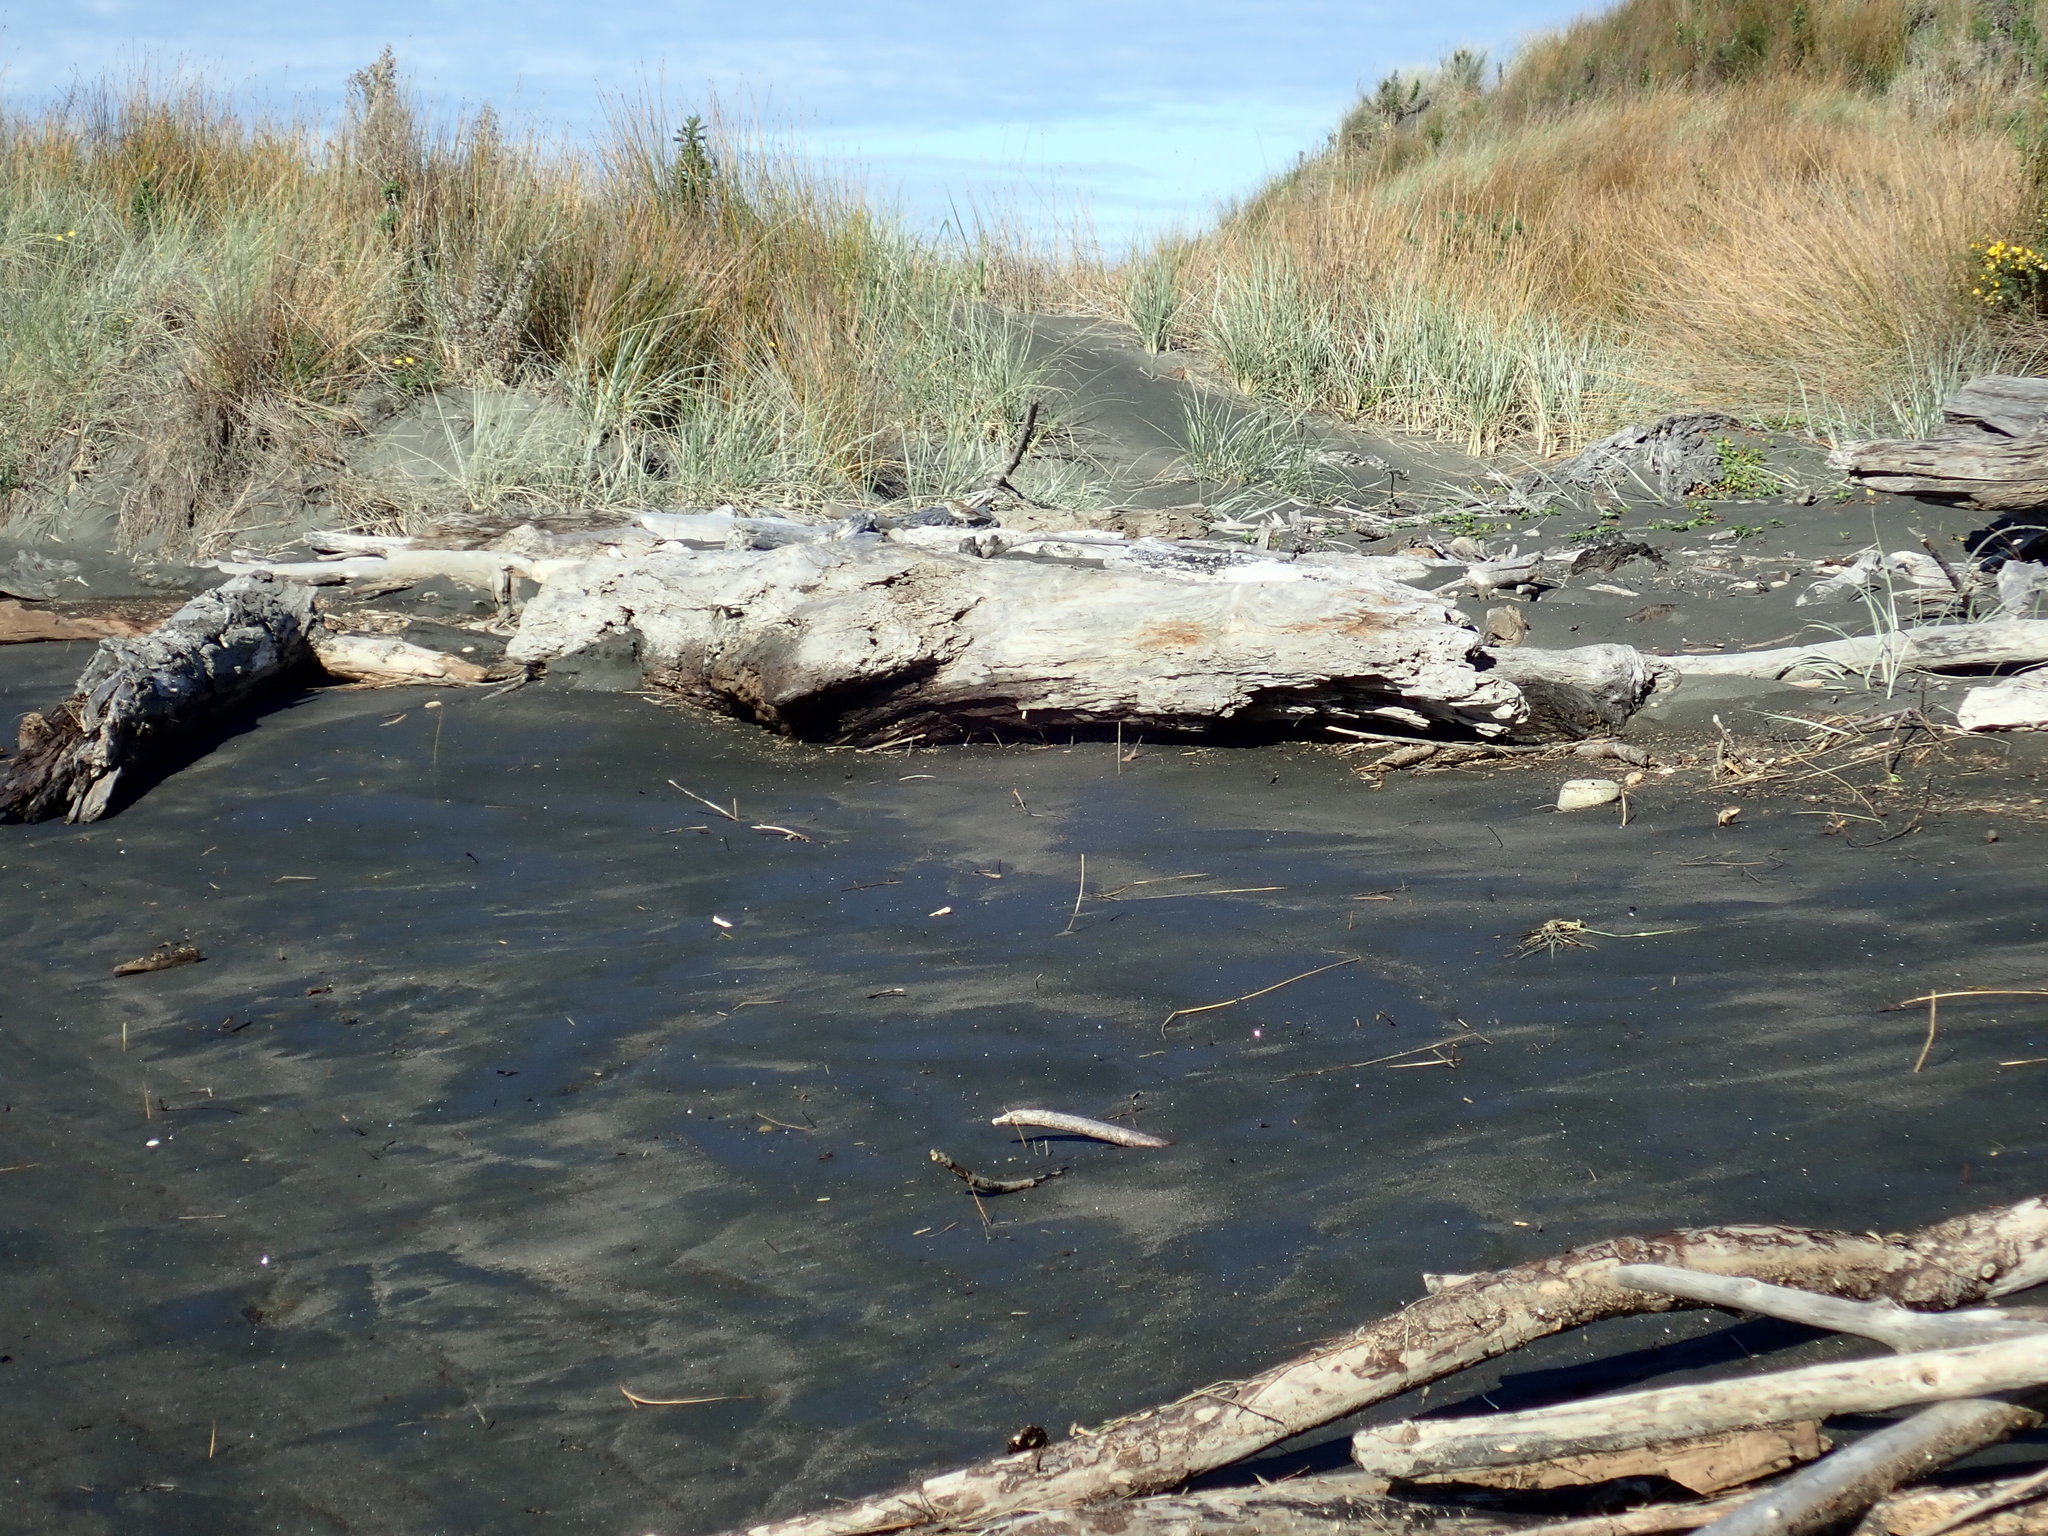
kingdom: Animalia
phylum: Chordata
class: Aves
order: Passeriformes
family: Motacillidae
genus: Anthus
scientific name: Anthus novaeseelandiae
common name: New zealand pipit
